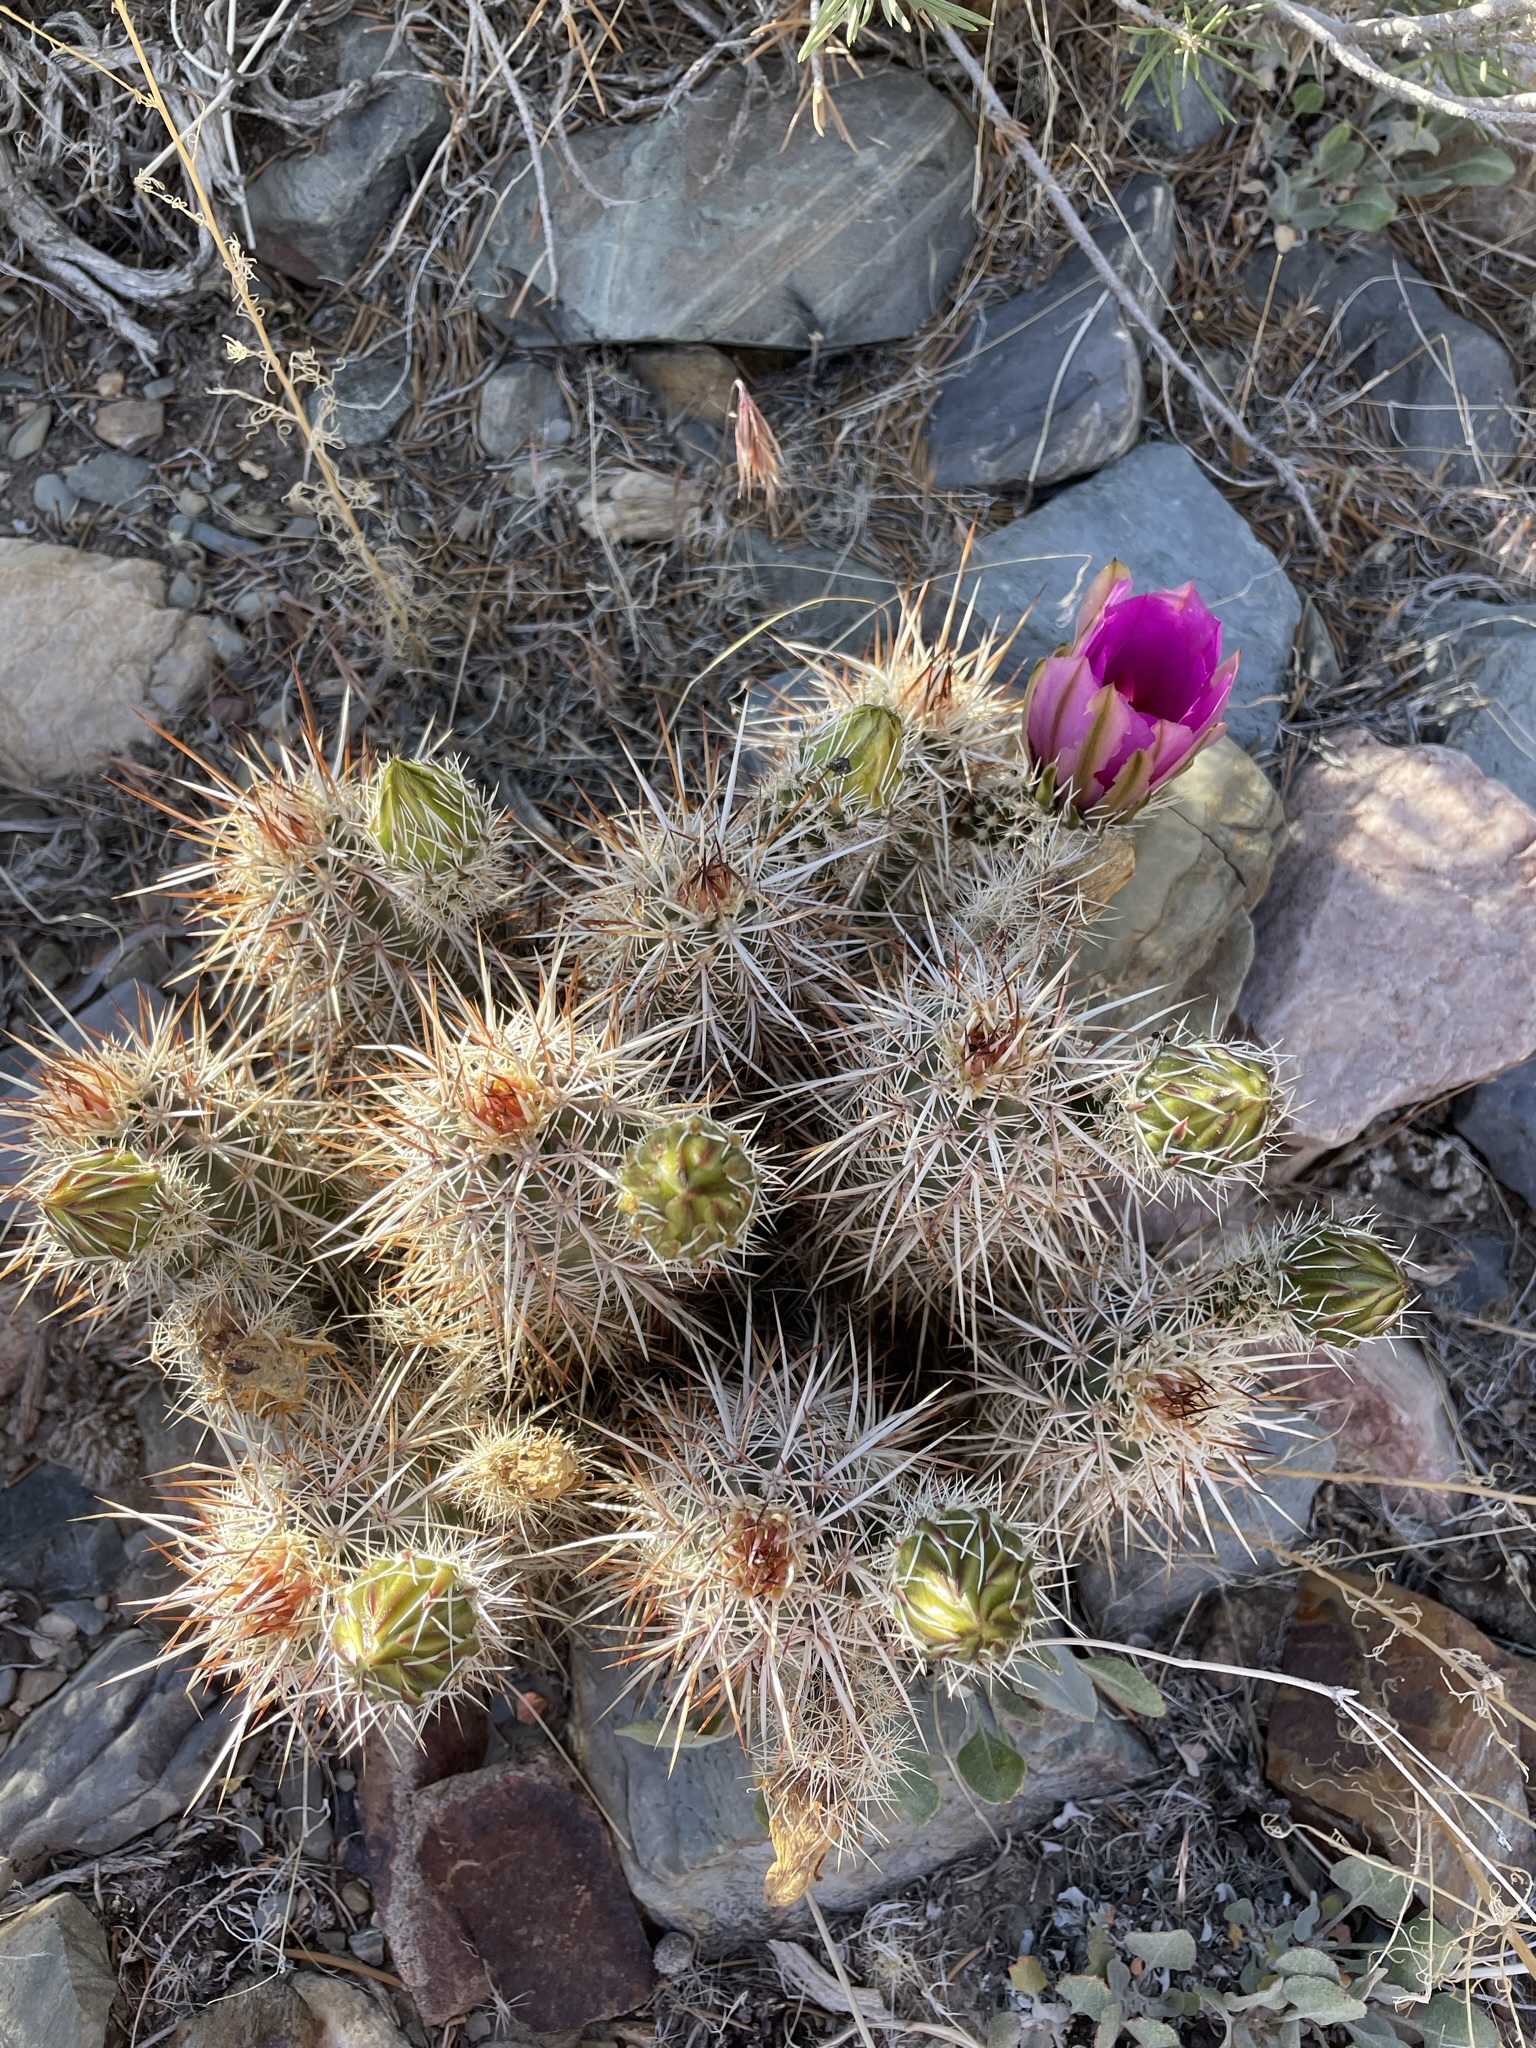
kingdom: Plantae
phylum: Tracheophyta
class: Magnoliopsida
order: Caryophyllales
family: Cactaceae
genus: Echinocereus
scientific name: Echinocereus engelmannii
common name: Engelmann's hedgehog cactus
